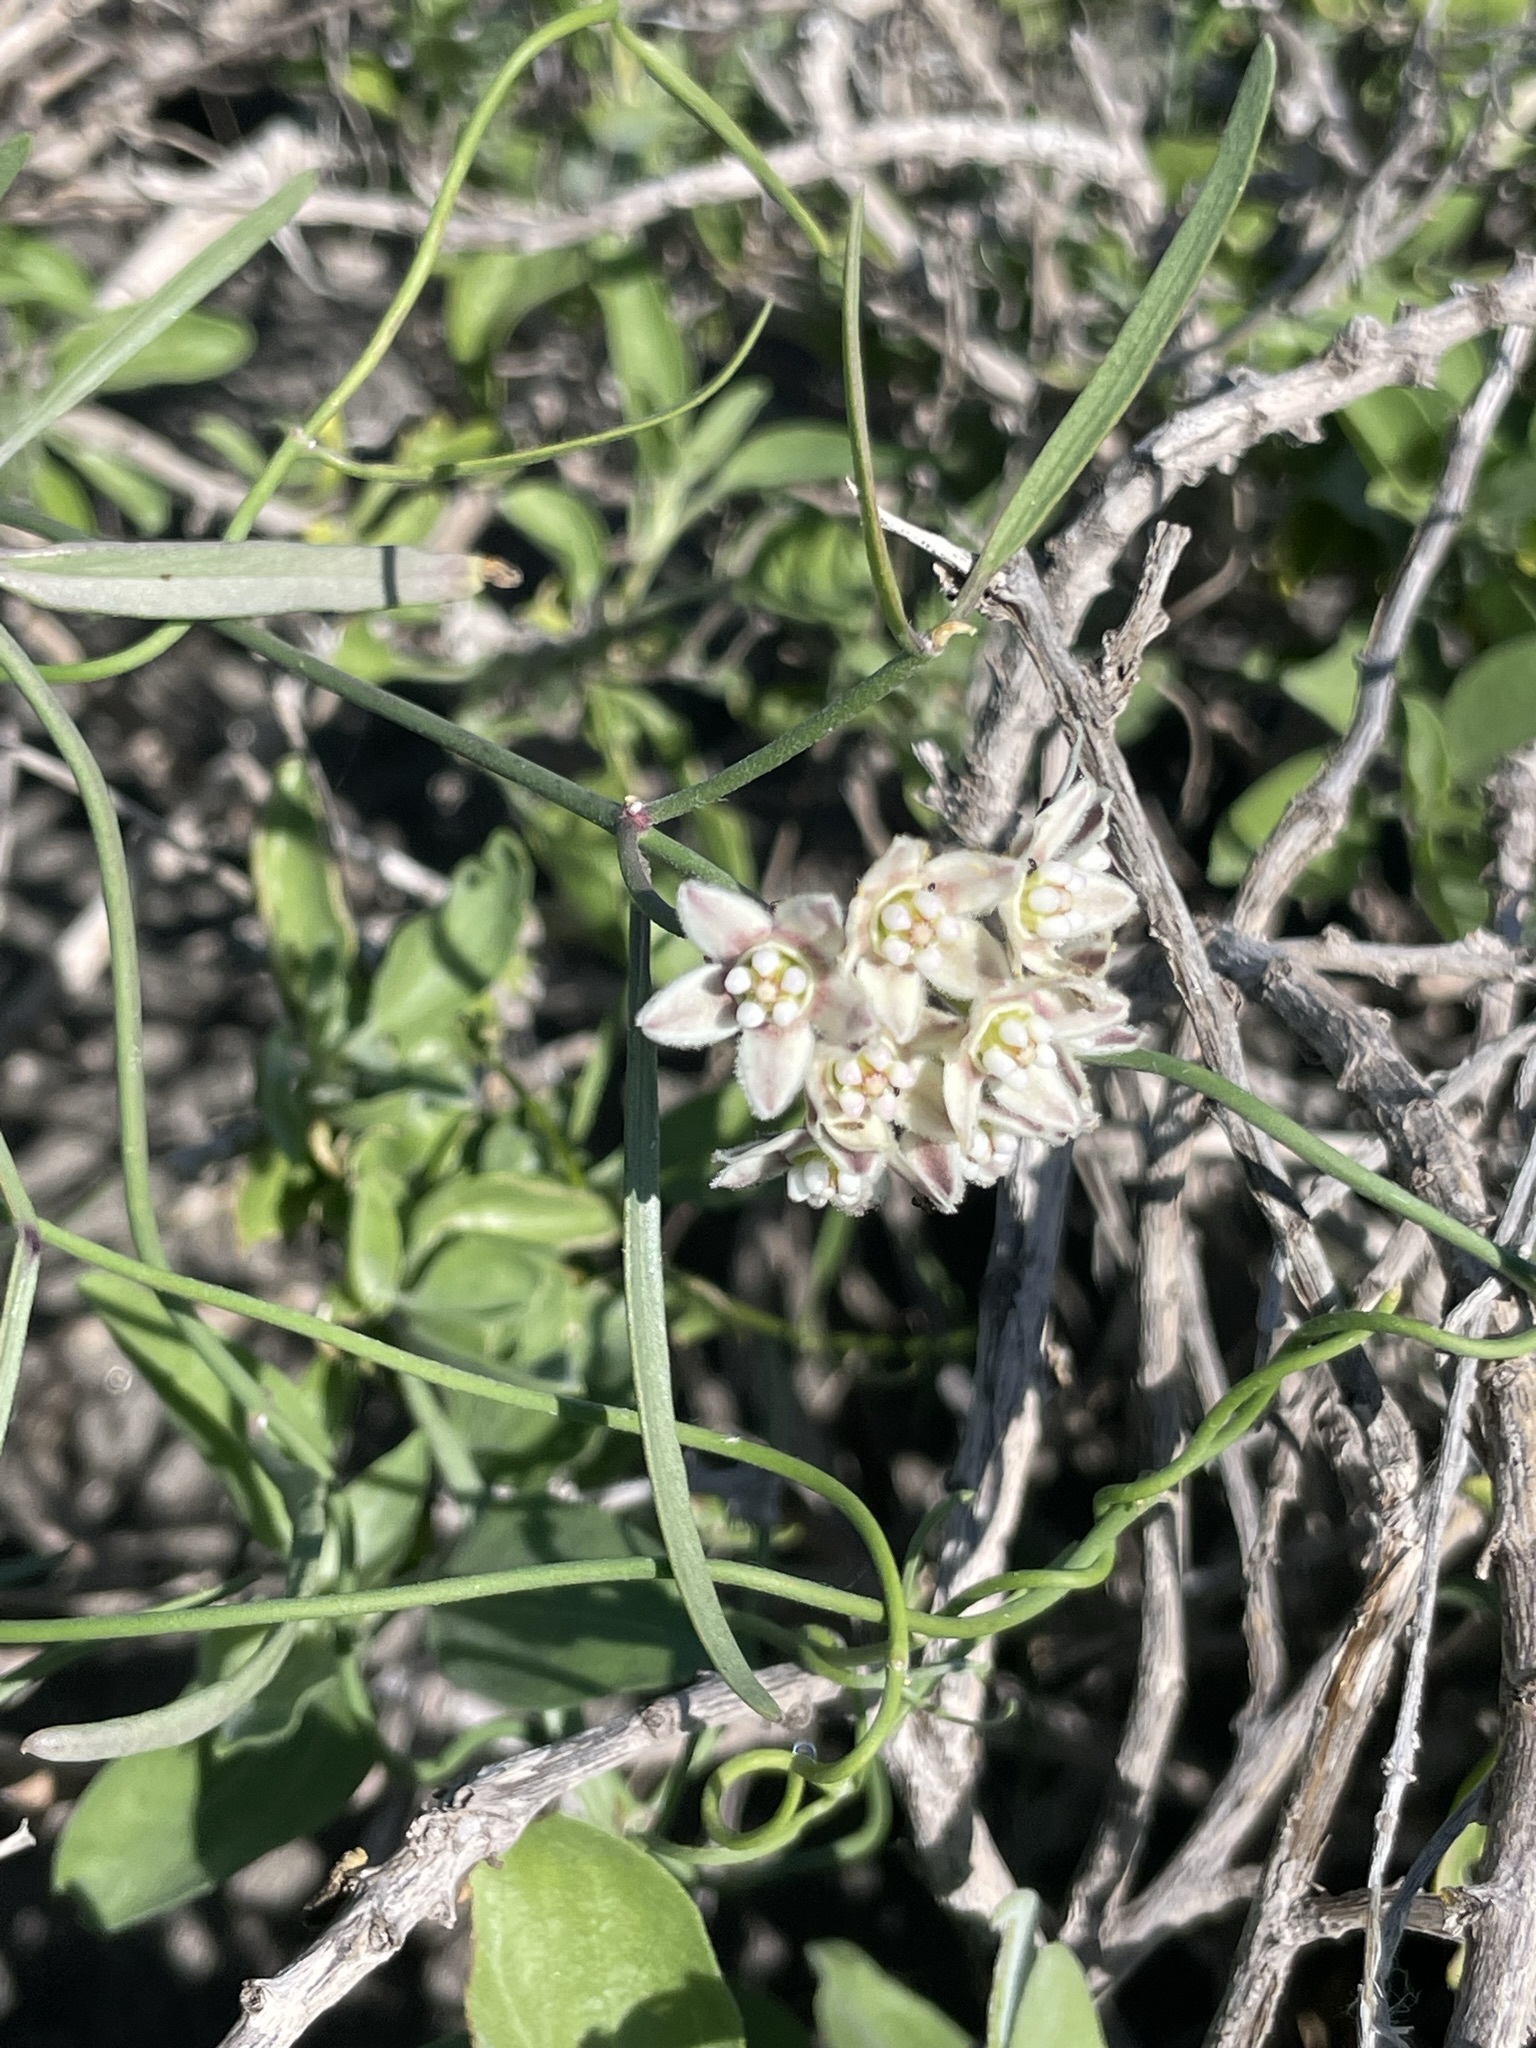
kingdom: Plantae
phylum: Tracheophyta
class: Magnoliopsida
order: Gentianales
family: Apocynaceae
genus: Funastrum
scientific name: Funastrum heterophyllum
